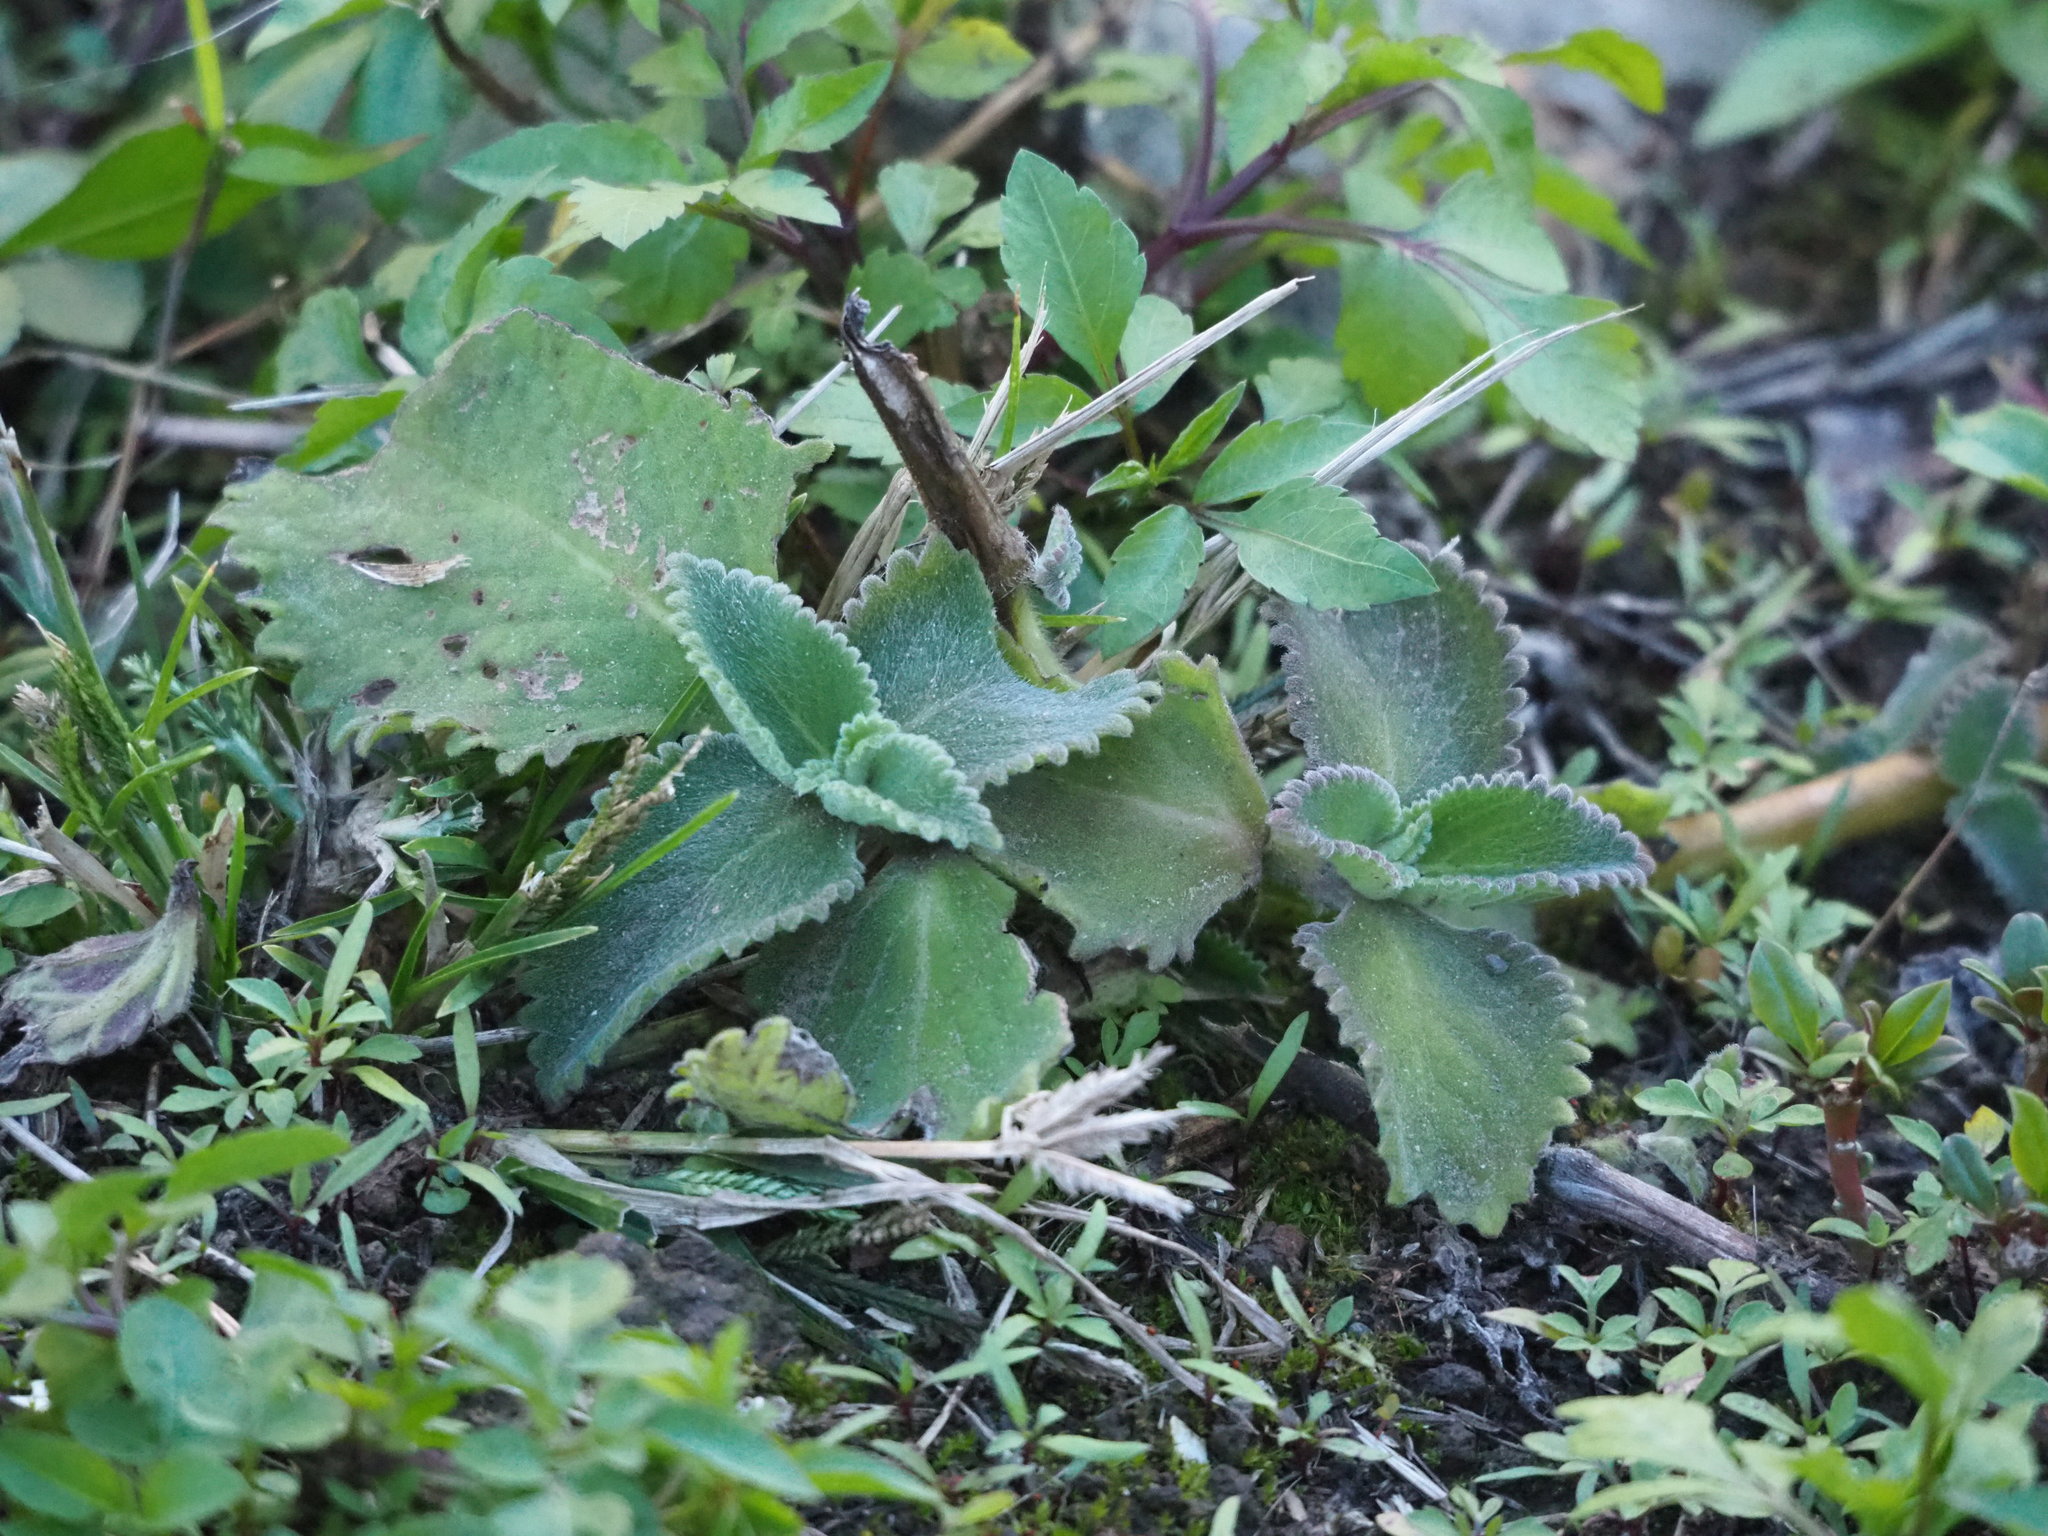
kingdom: Plantae
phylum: Tracheophyta
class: Magnoliopsida
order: Lamiales
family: Lamiaceae
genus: Coleus
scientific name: Coleus amboinicus
